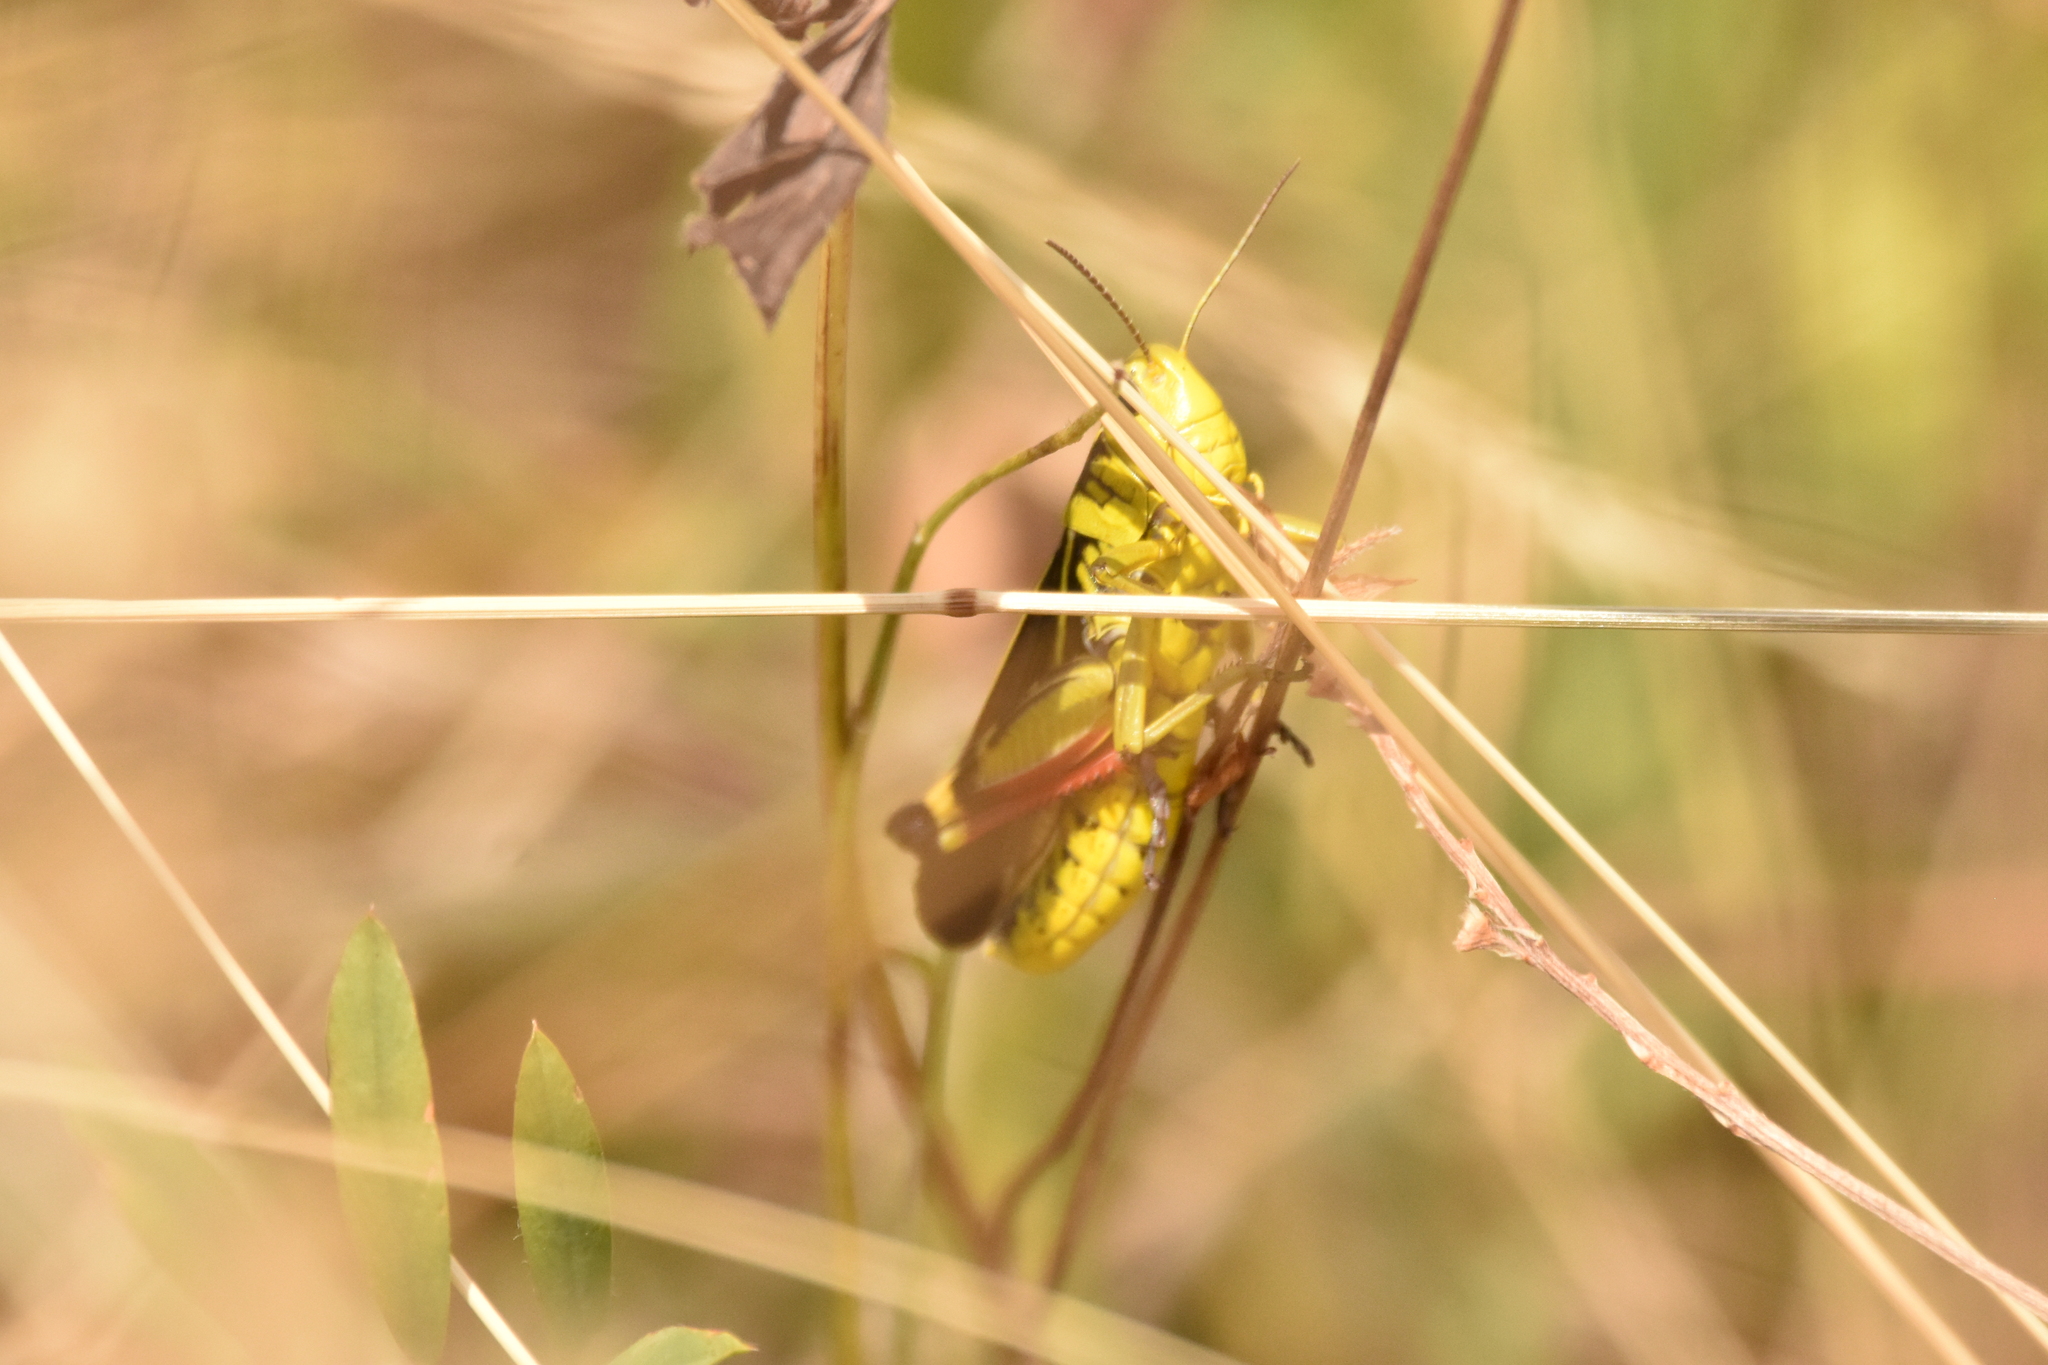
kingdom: Animalia
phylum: Arthropoda
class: Insecta
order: Orthoptera
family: Acrididae
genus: Arcyptera
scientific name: Arcyptera fusca
